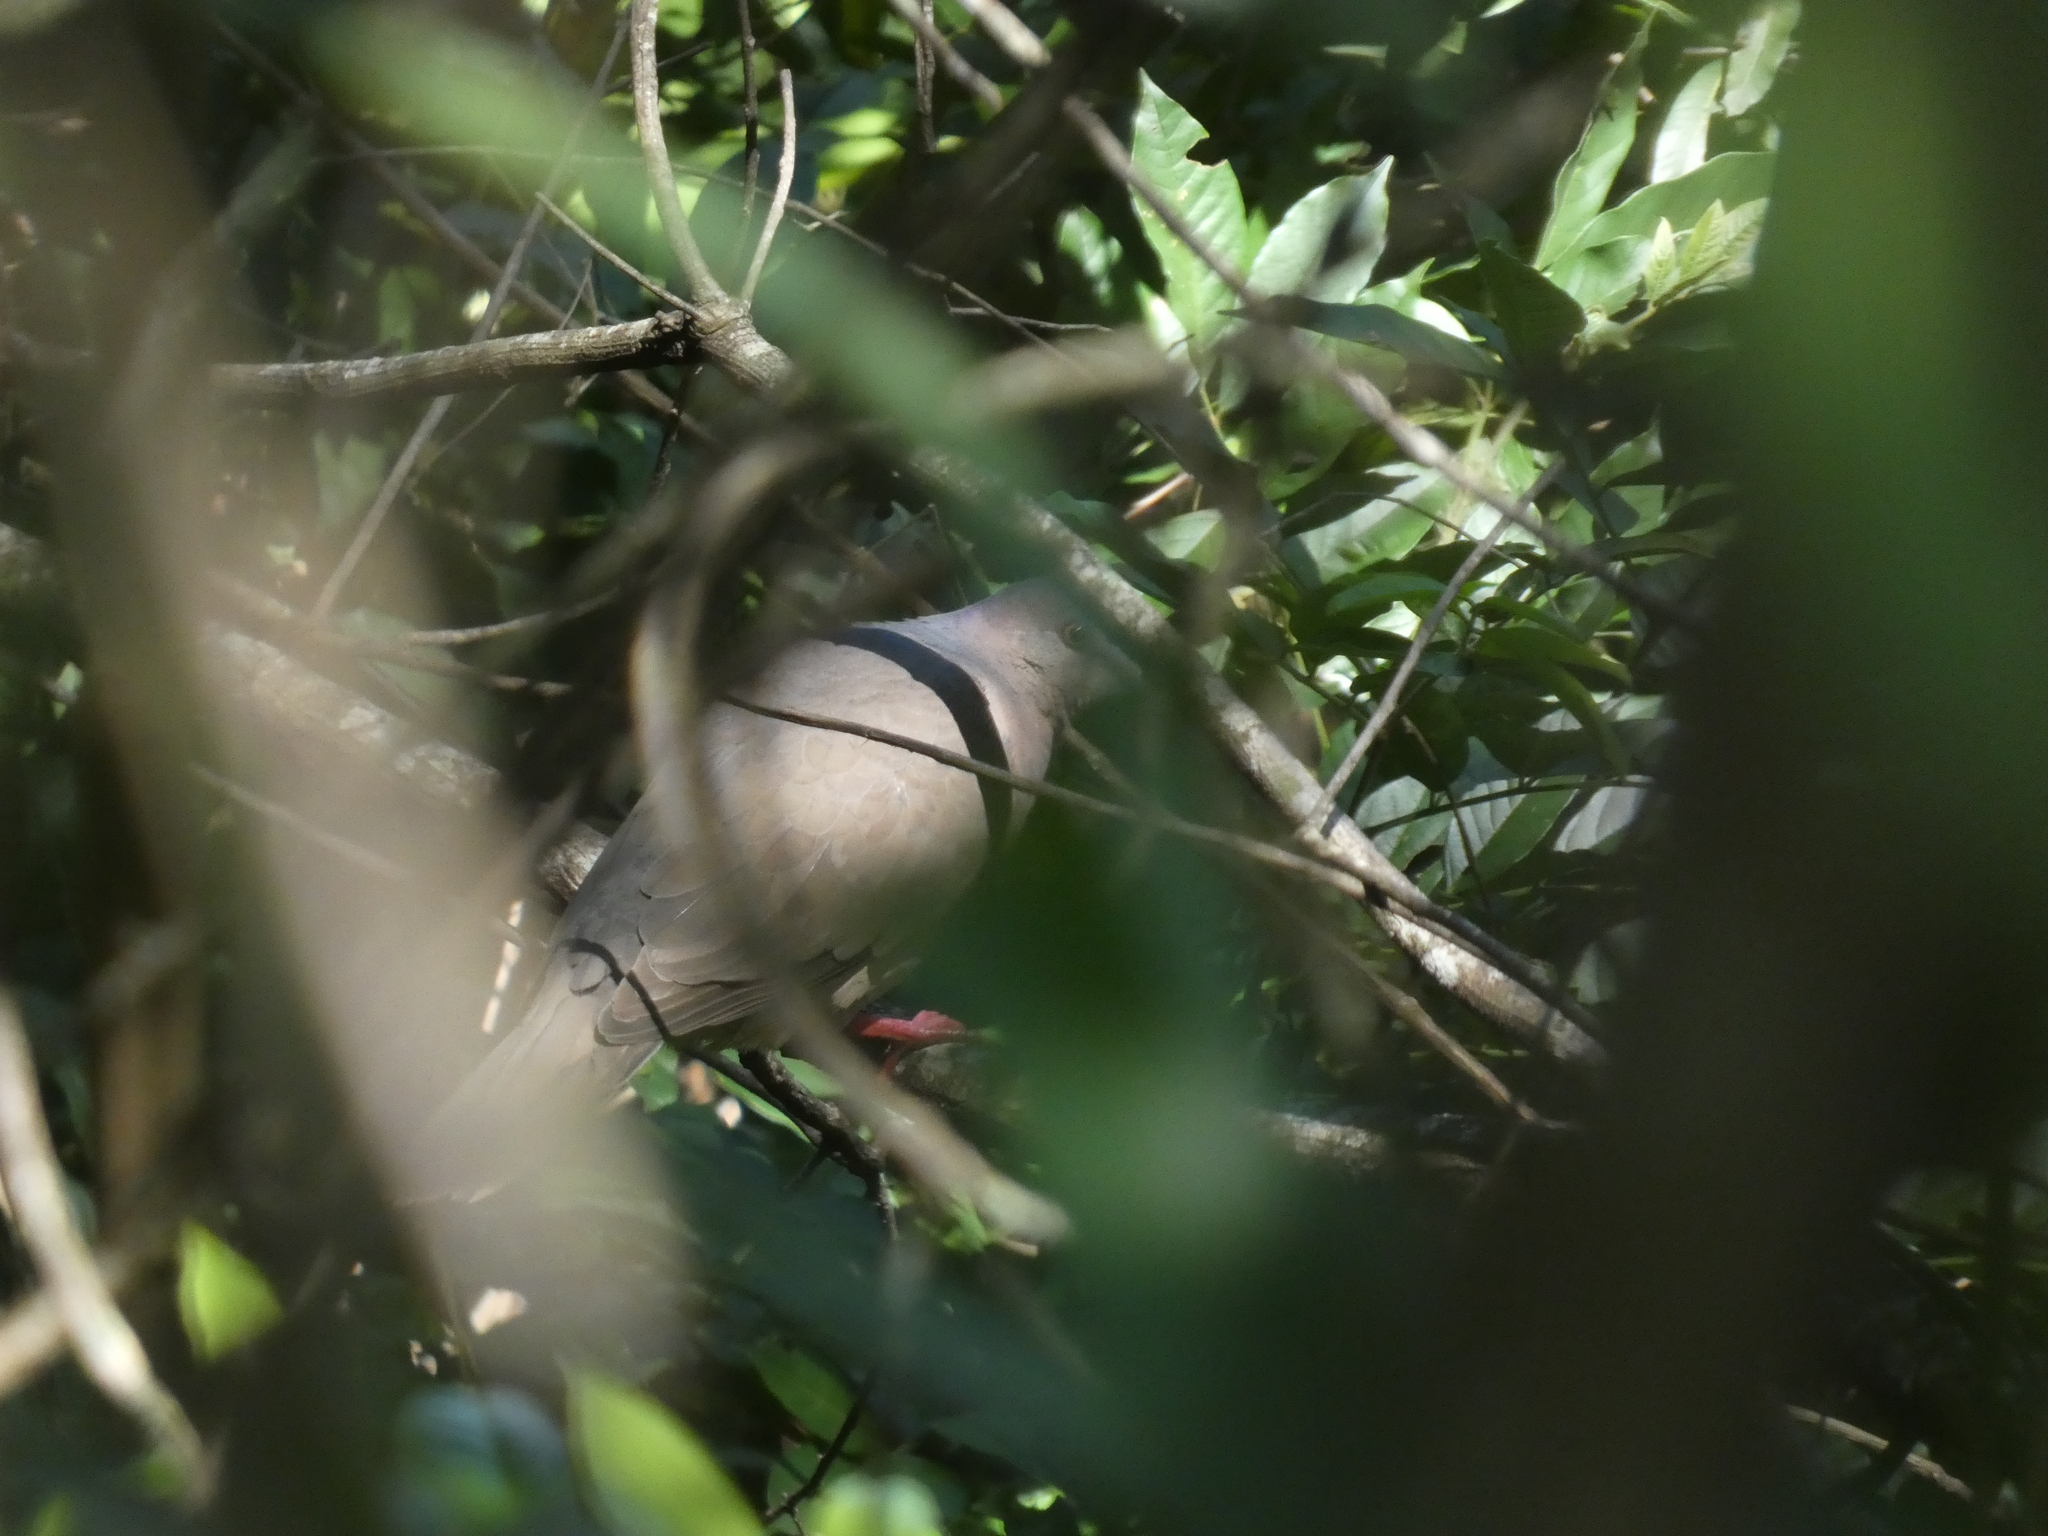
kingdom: Animalia
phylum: Chordata
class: Aves
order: Columbiformes
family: Columbidae
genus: Leptotila
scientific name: Leptotila verreauxi
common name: White-tipped dove
